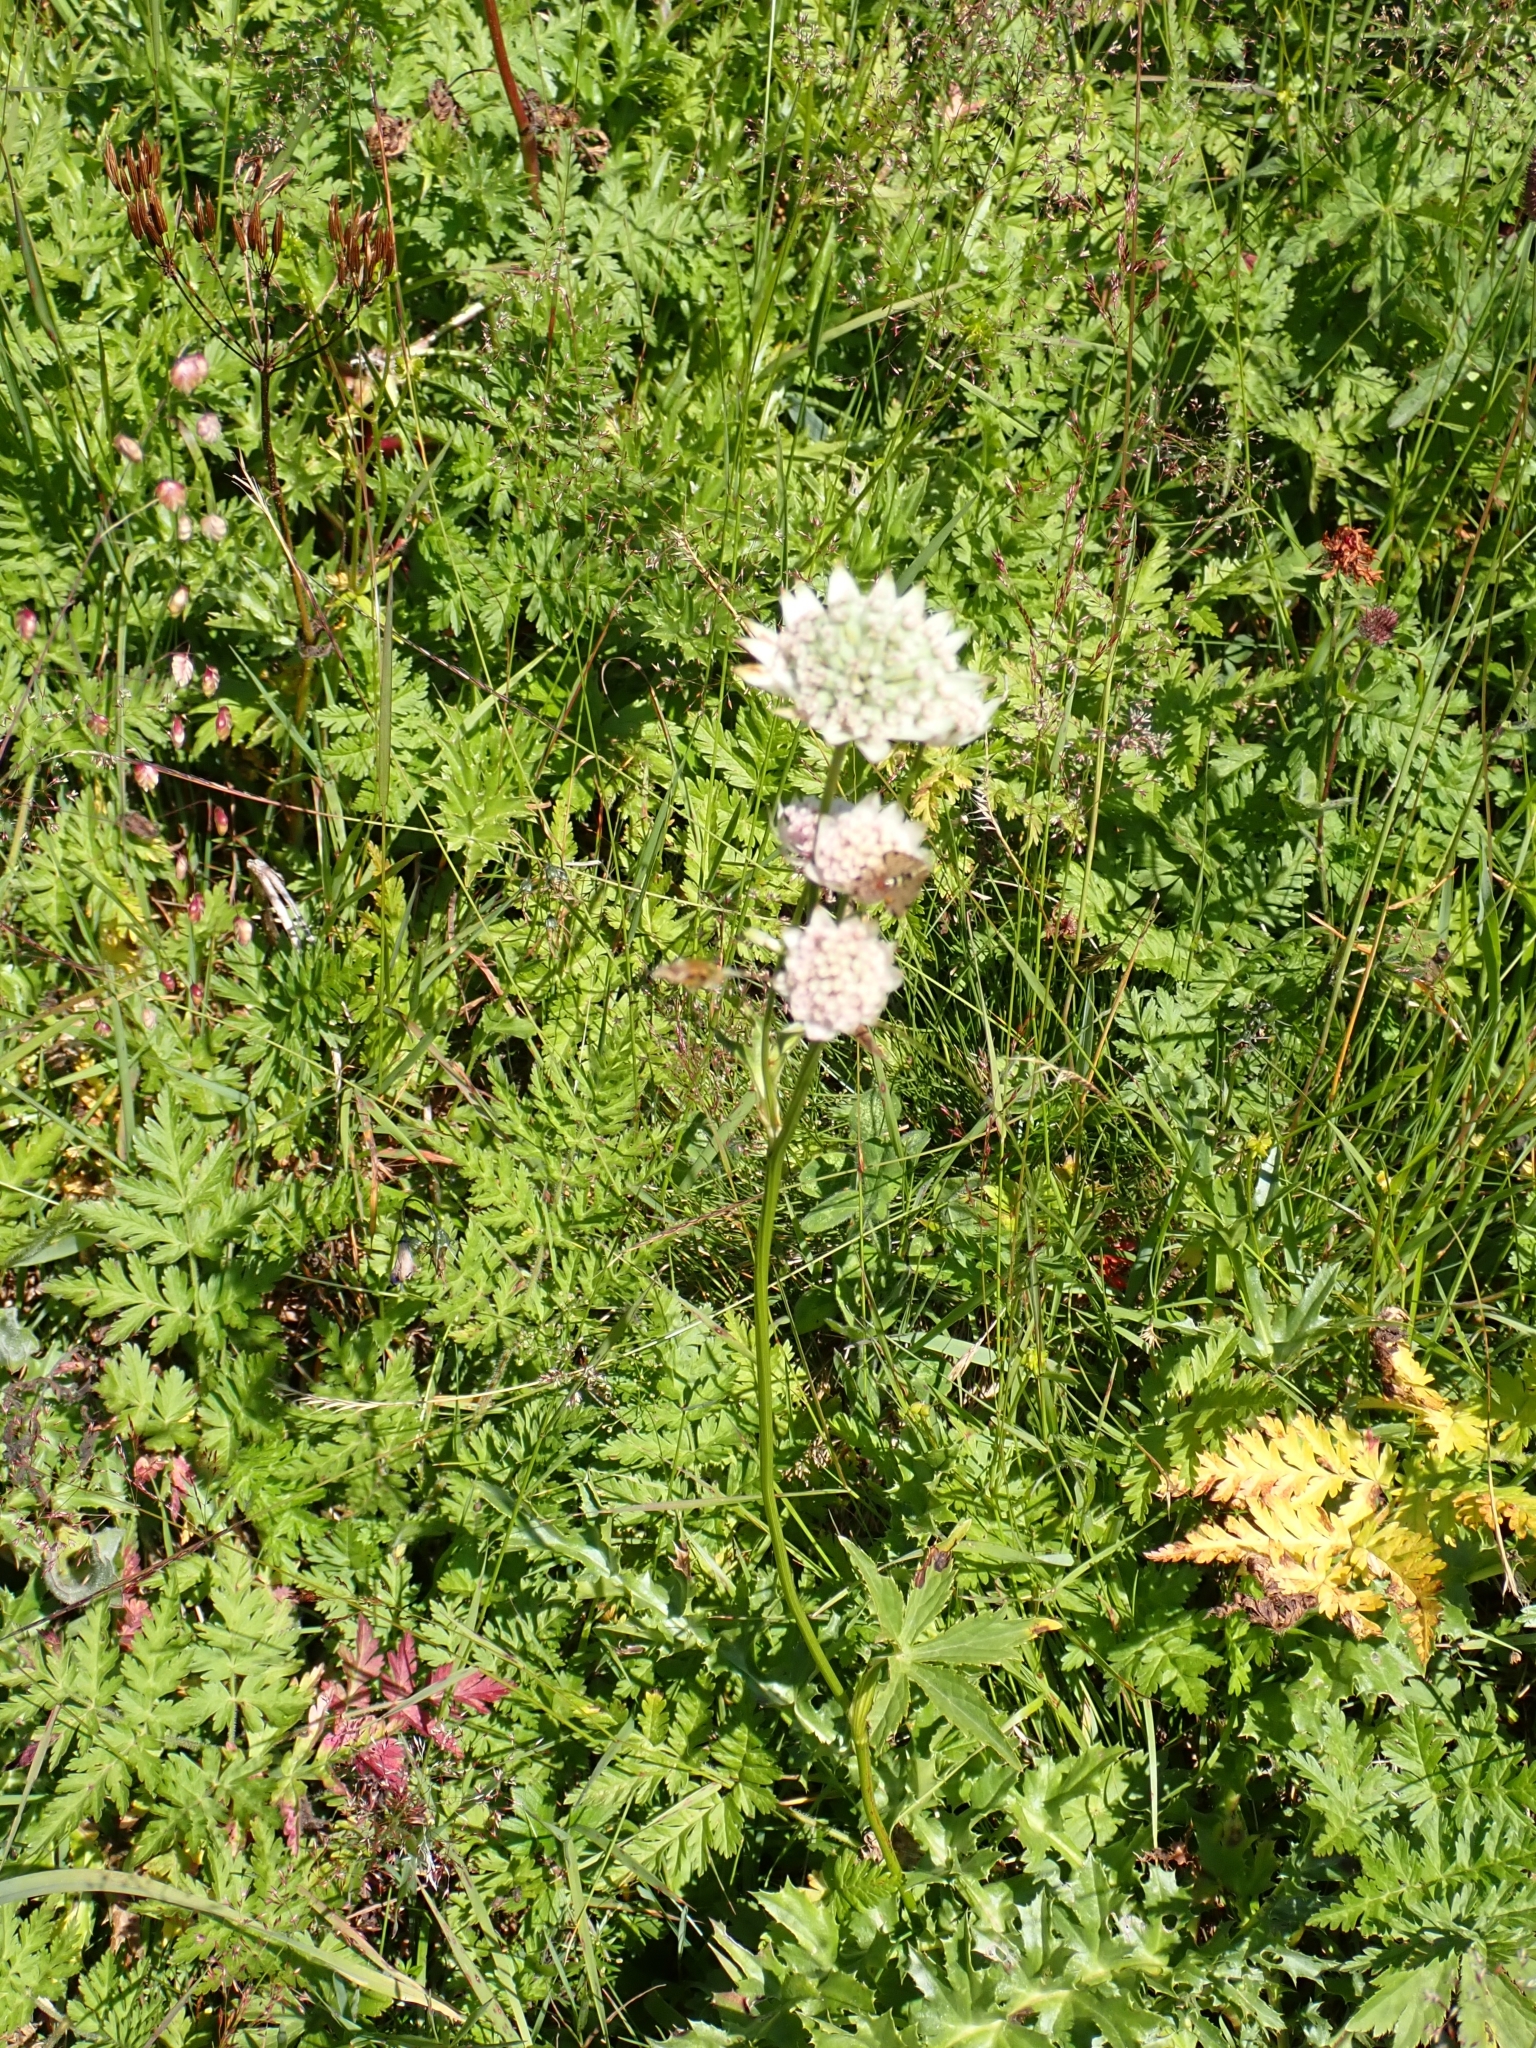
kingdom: Plantae
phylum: Tracheophyta
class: Magnoliopsida
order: Apiales
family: Apiaceae
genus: Astrantia
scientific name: Astrantia major
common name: Greater masterwort
